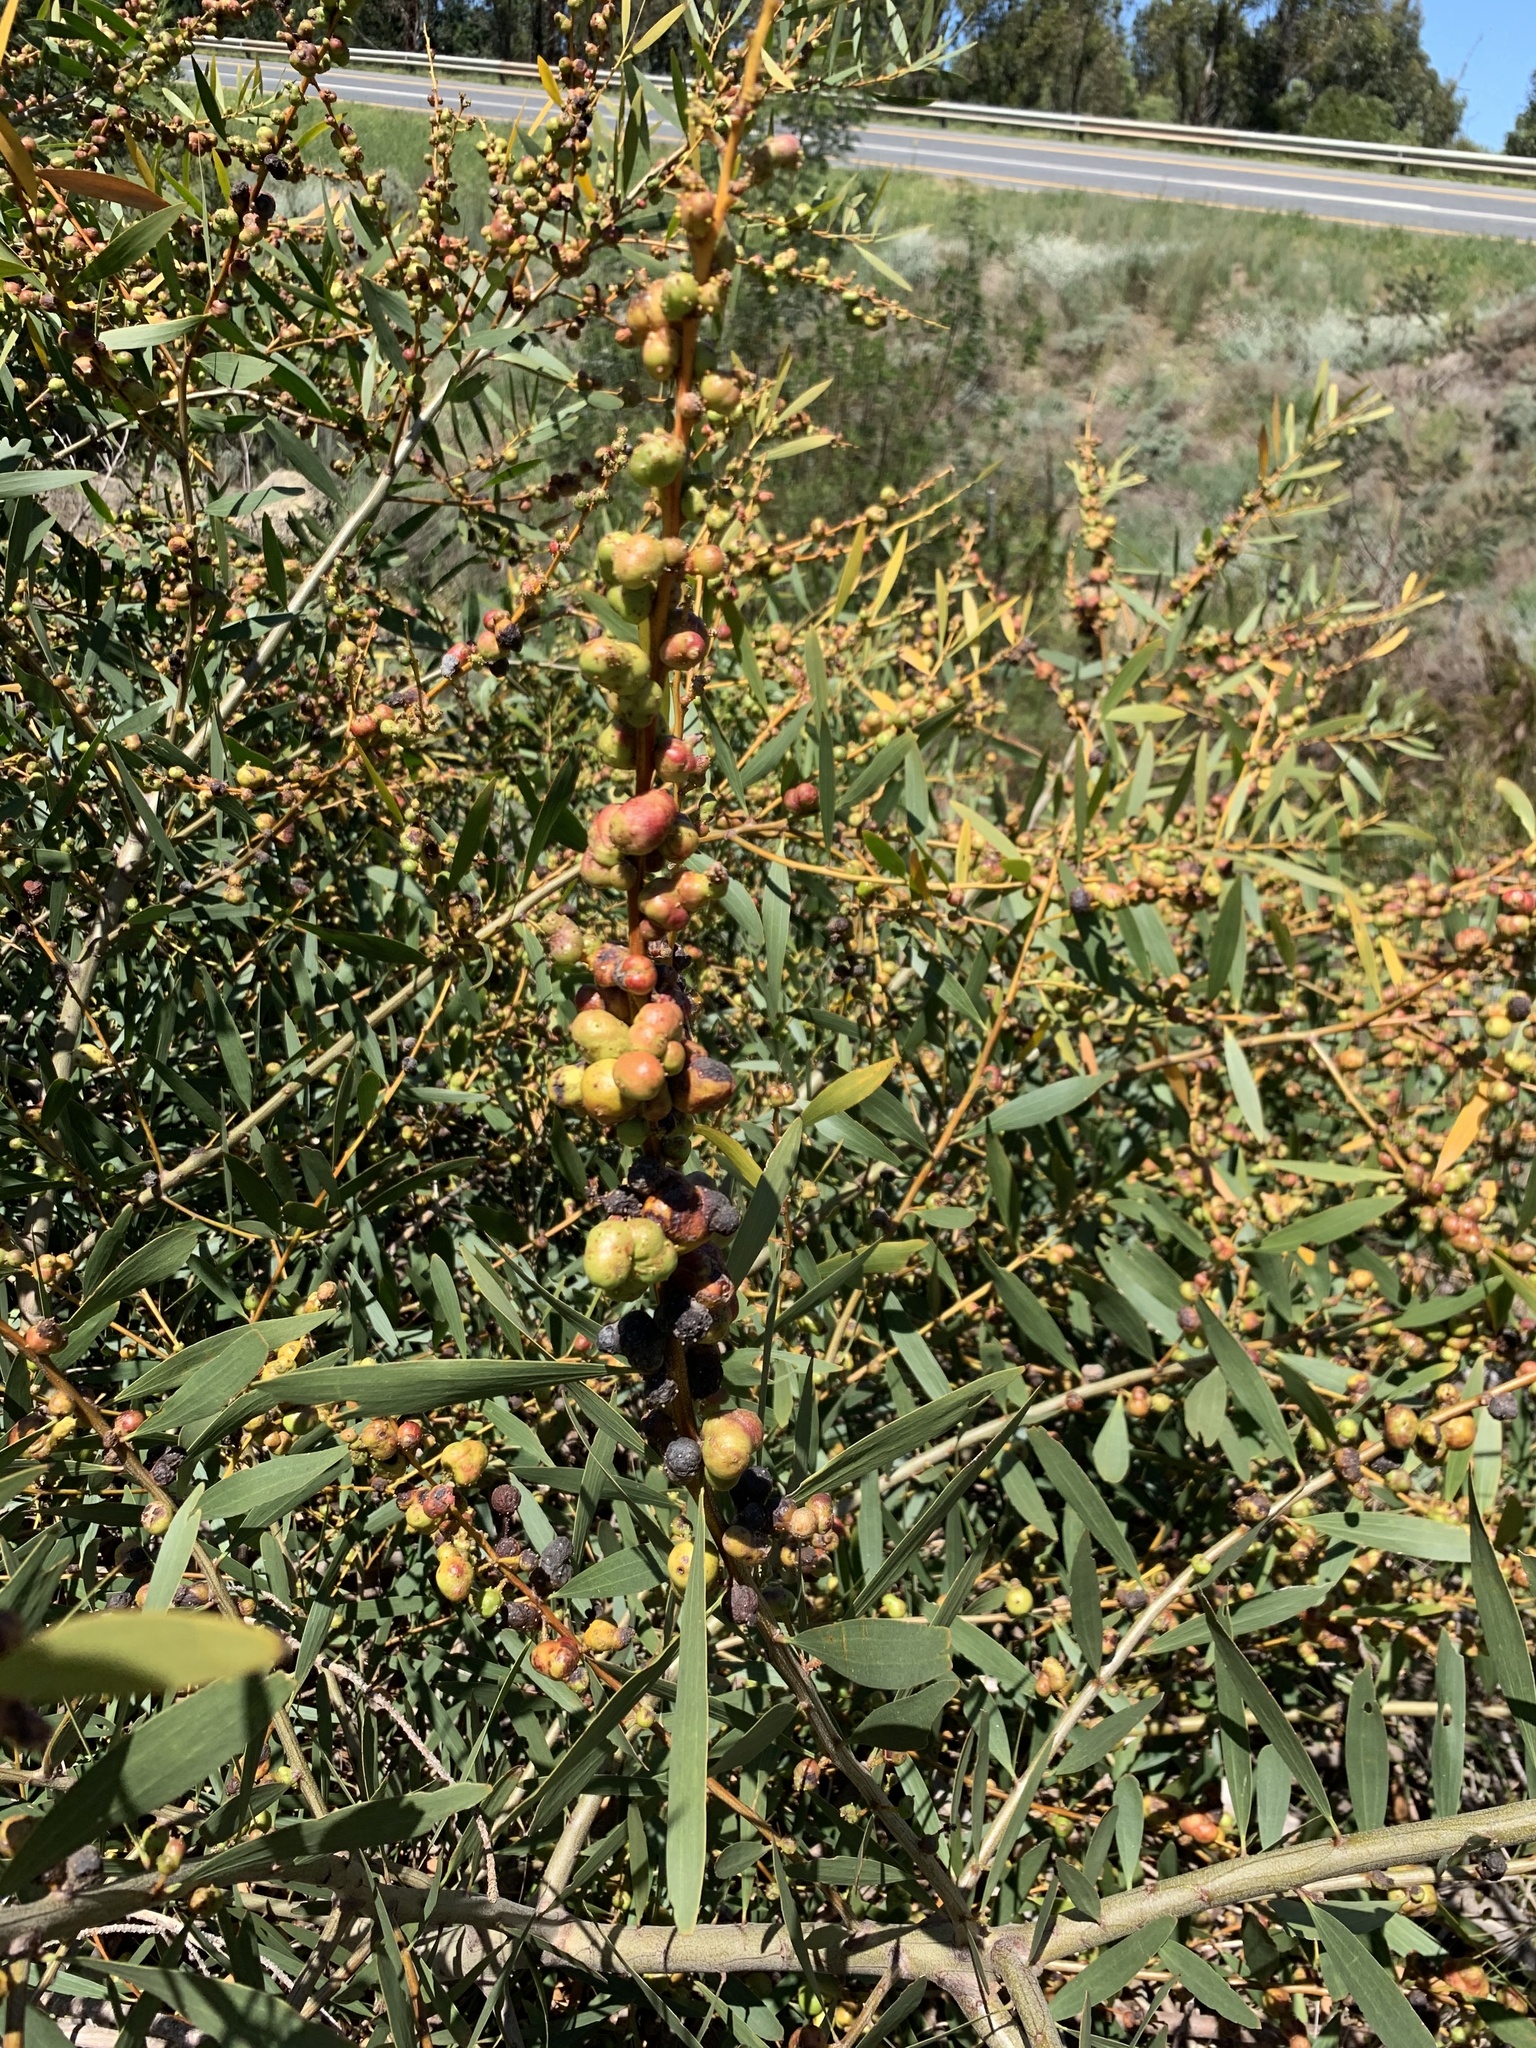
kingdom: Plantae
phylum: Tracheophyta
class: Magnoliopsida
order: Fabales
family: Fabaceae
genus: Acacia
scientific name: Acacia longifolia
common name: Sydney golden wattle
